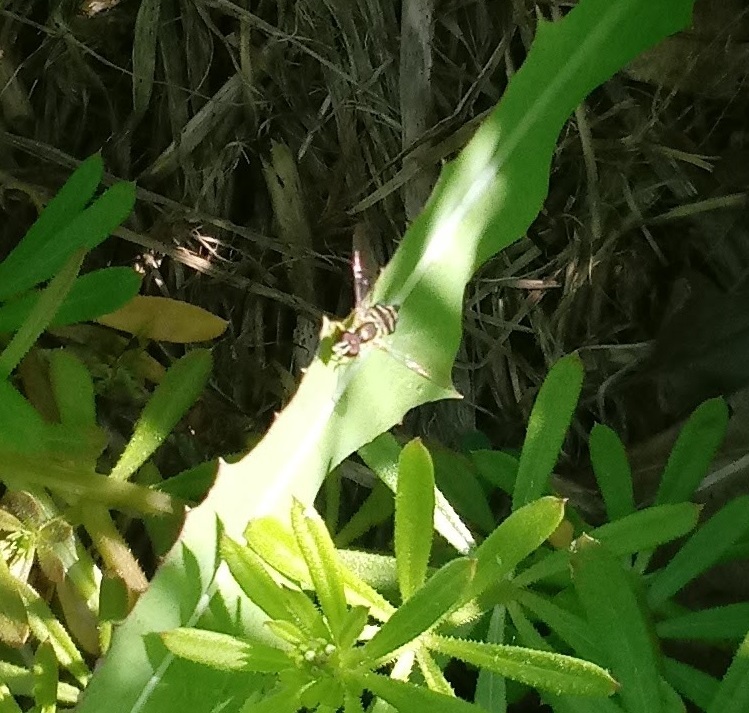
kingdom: Animalia
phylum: Arthropoda
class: Insecta
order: Diptera
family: Syrphidae
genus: Toxomerus
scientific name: Toxomerus geminatus
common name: Eastern calligrapher
